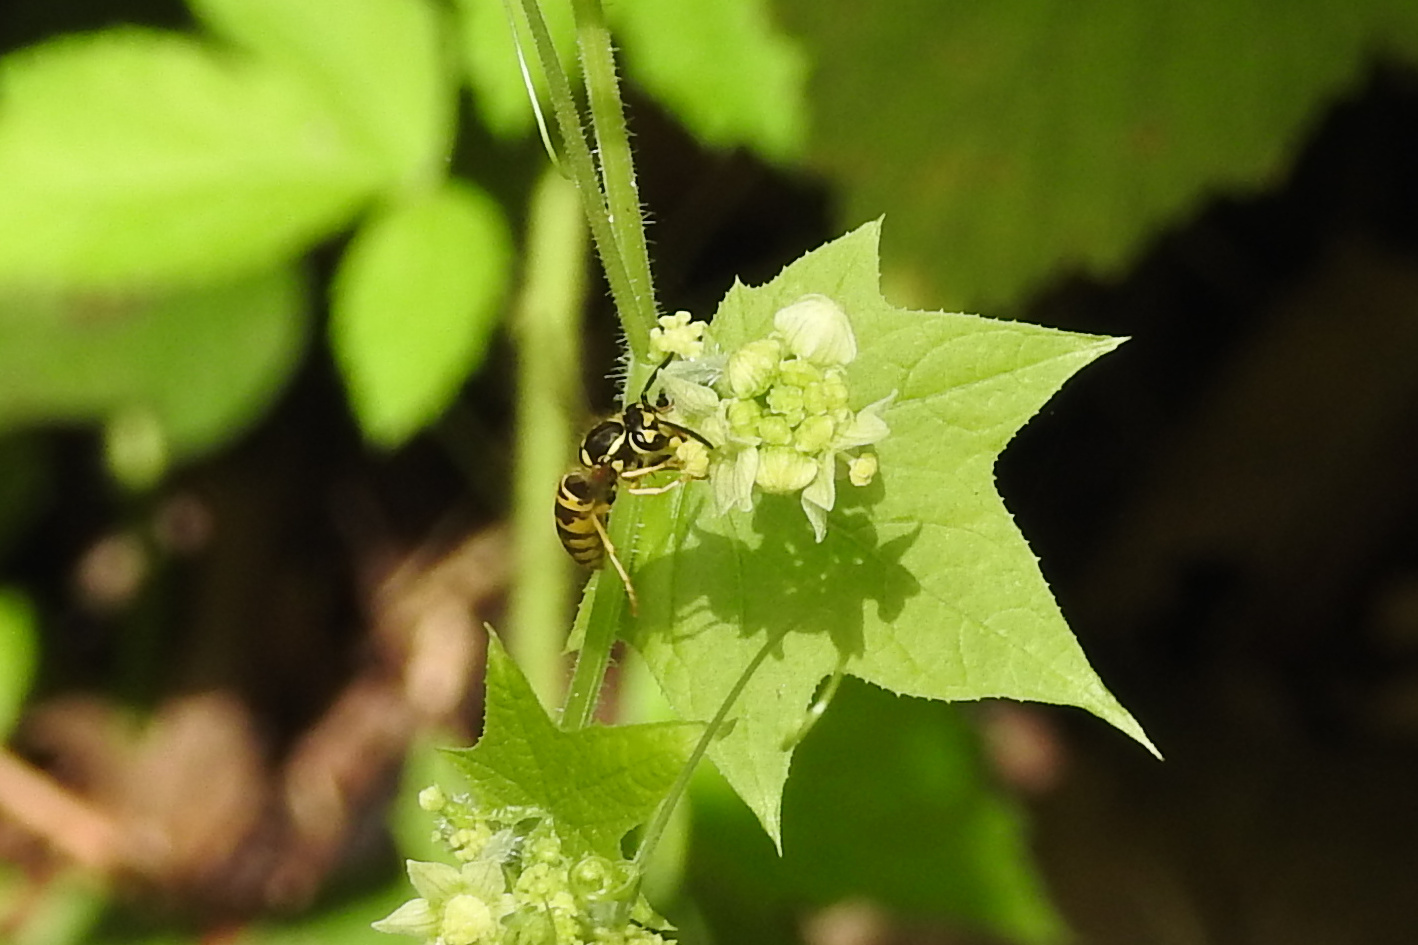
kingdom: Animalia
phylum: Arthropoda
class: Insecta
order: Hymenoptera
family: Vespidae
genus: Vespula
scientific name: Vespula maculifrons
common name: Eastern yellowjacket
